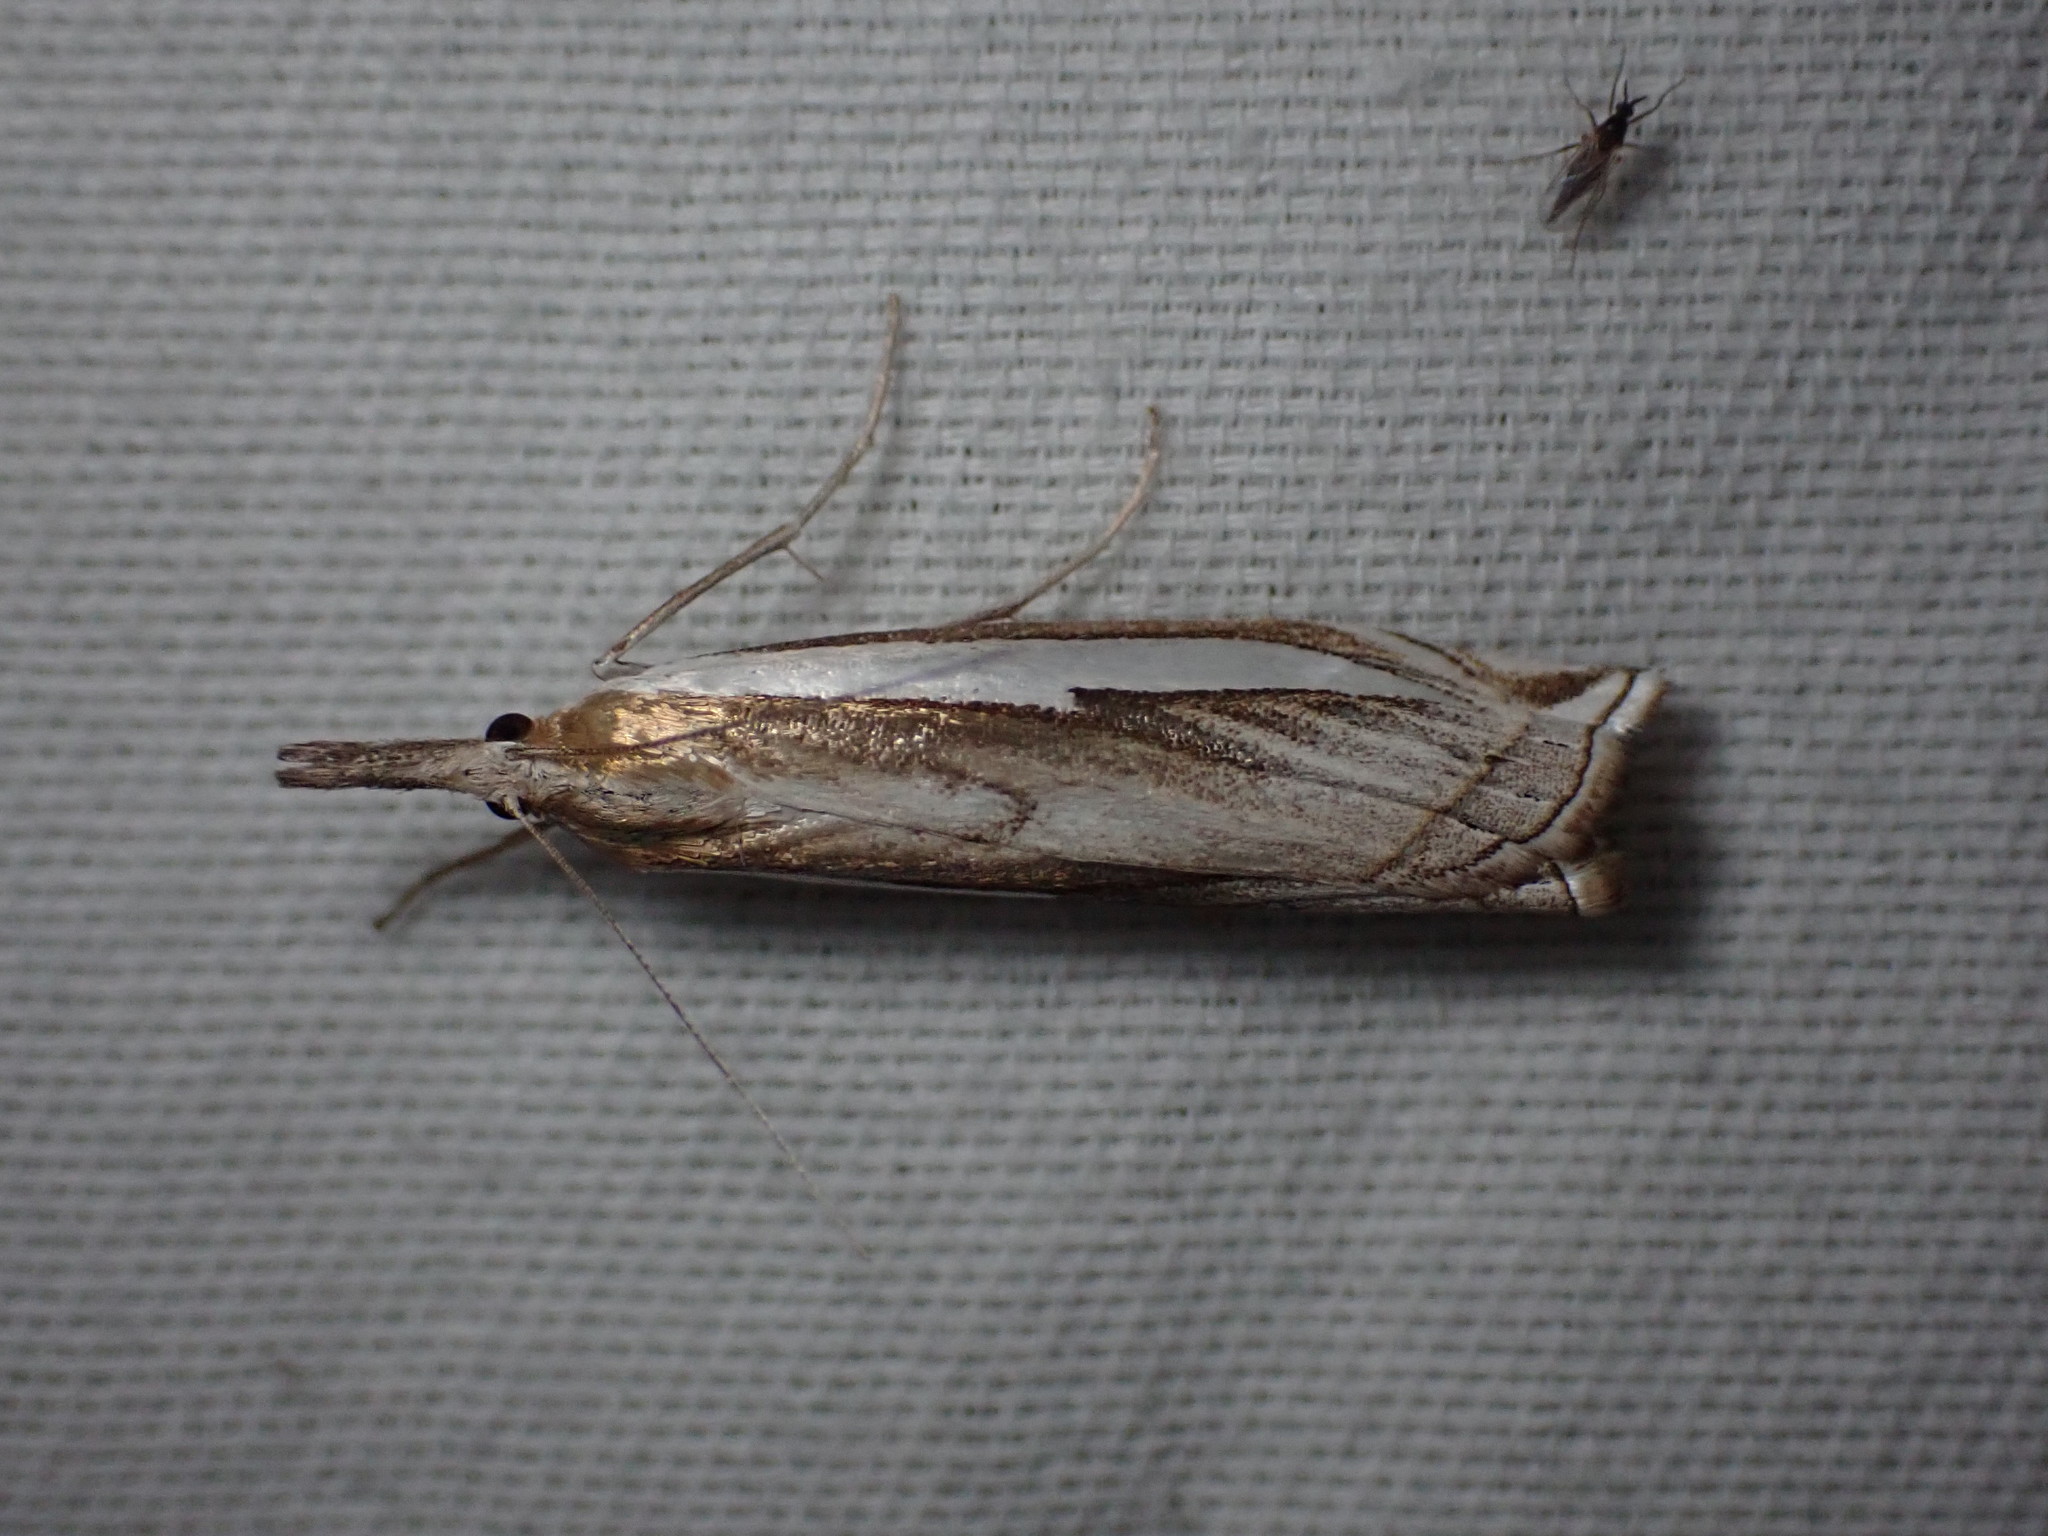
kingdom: Animalia
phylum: Arthropoda
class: Insecta
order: Lepidoptera
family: Crambidae
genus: Crambus
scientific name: Crambus cypridalis
